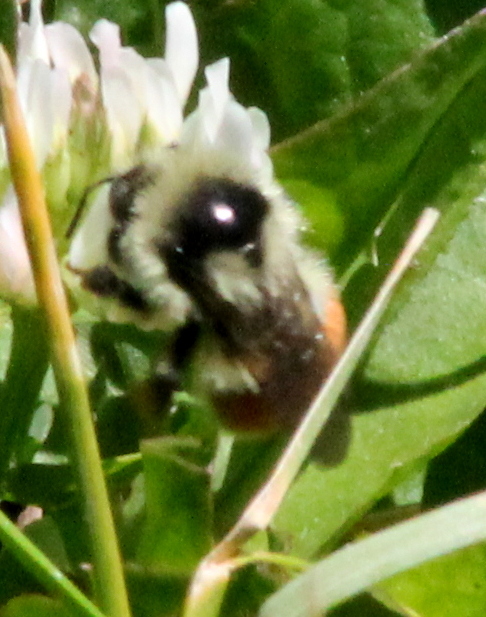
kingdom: Animalia
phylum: Arthropoda
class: Insecta
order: Hymenoptera
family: Apidae
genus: Bombus
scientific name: Bombus bifarius
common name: Two form bumble bee
